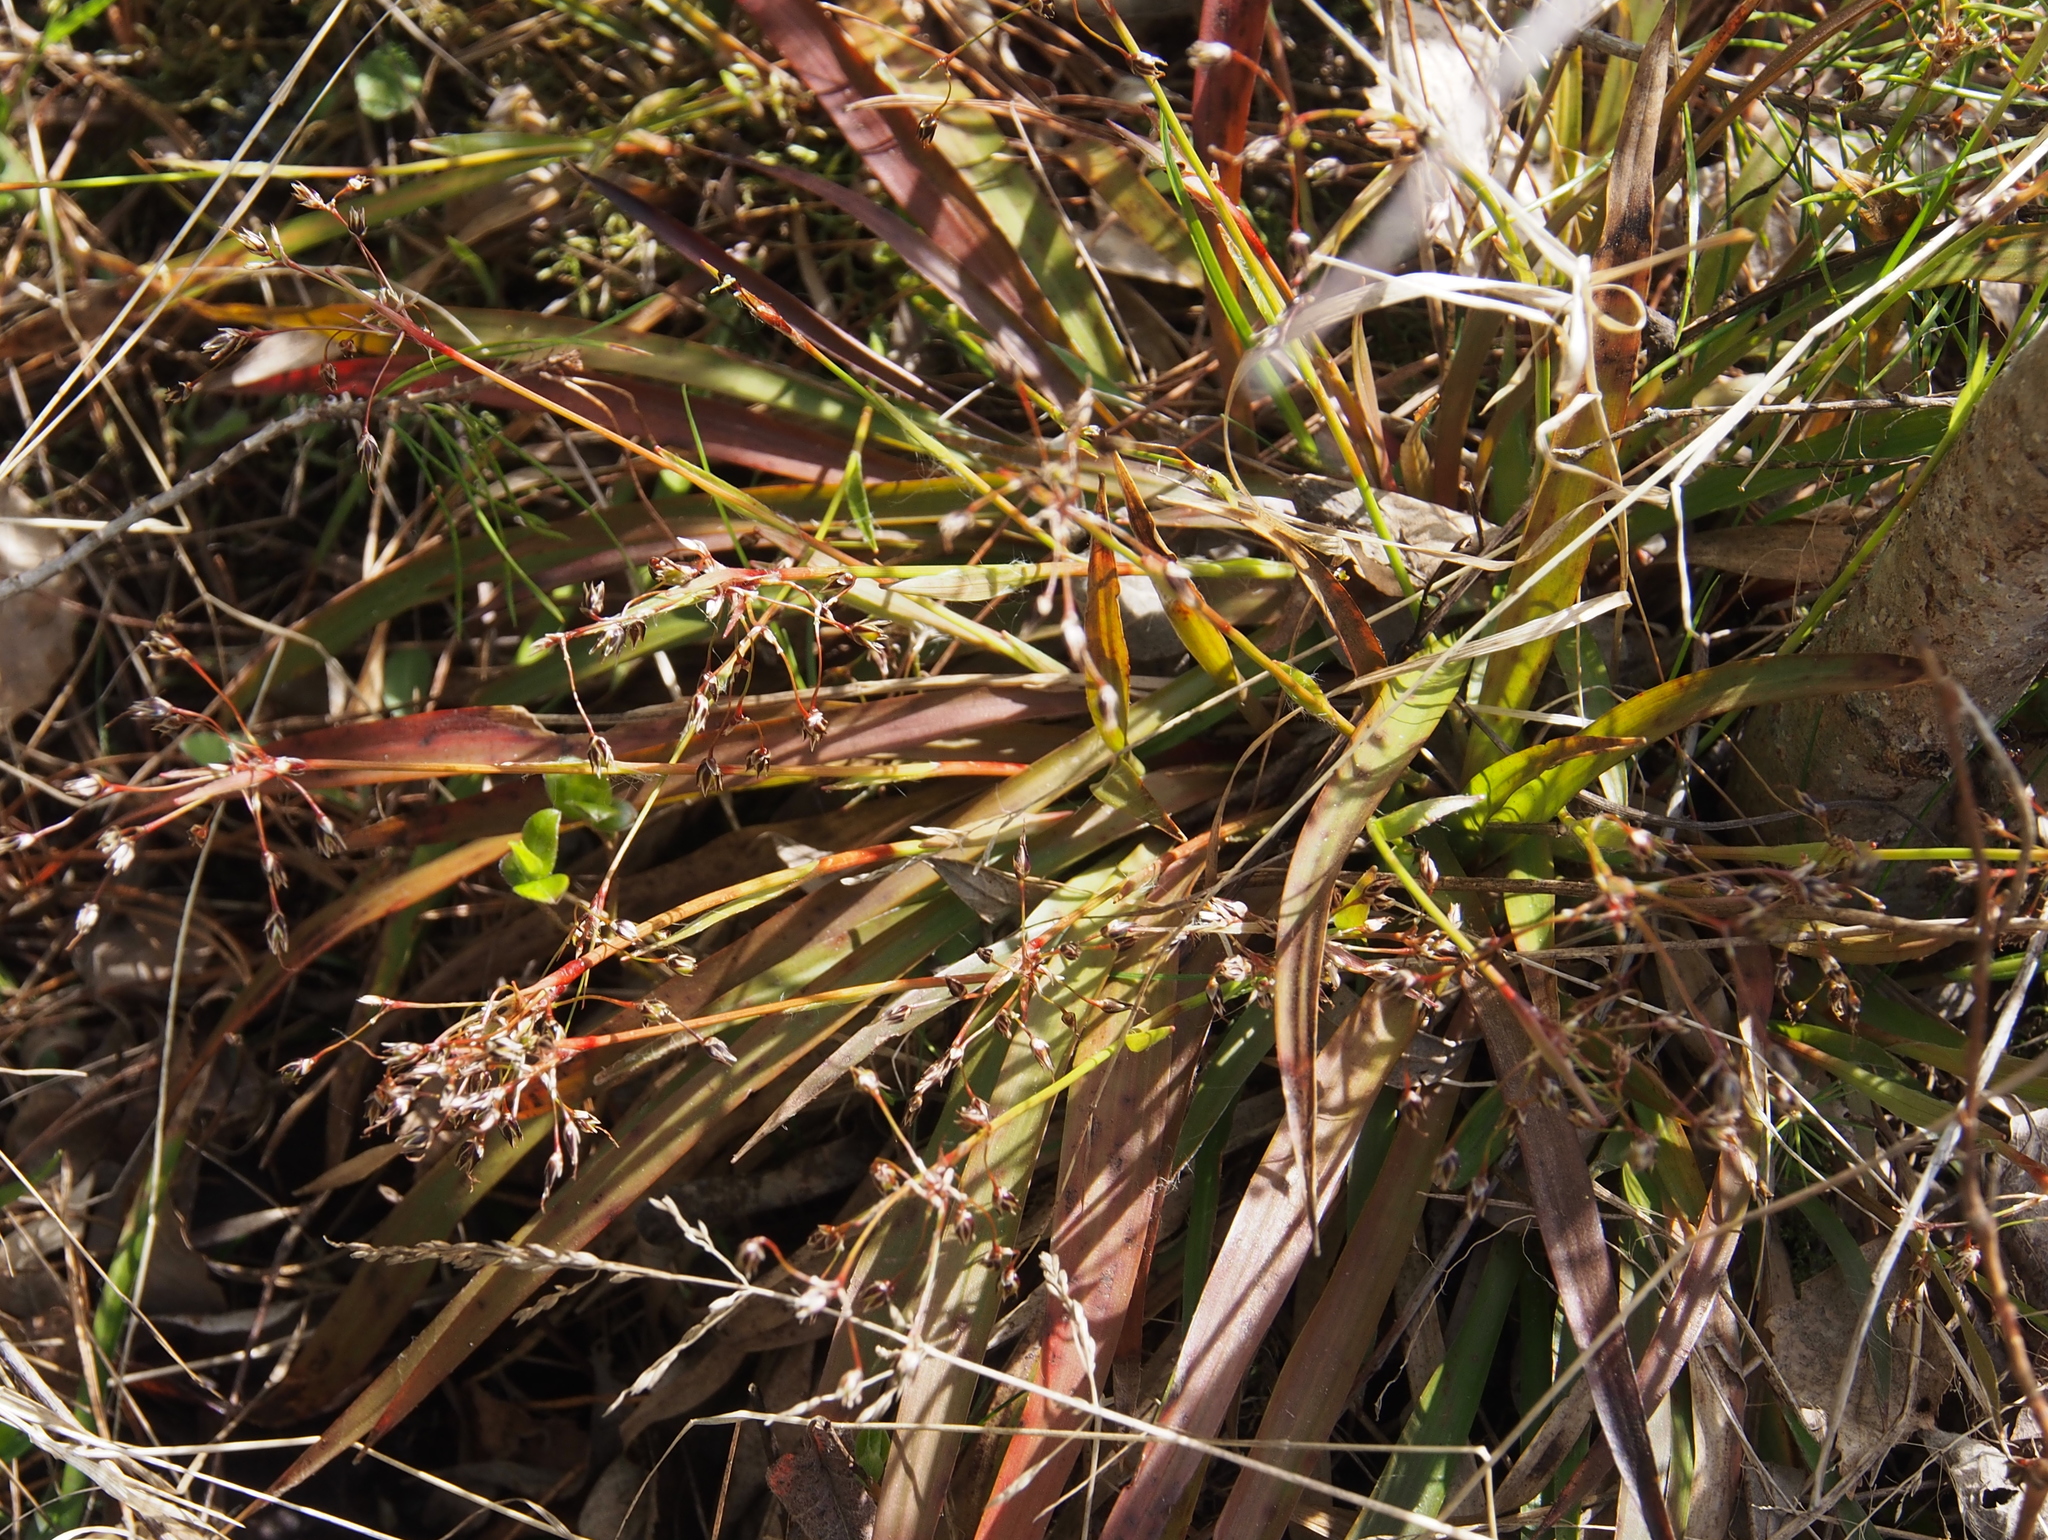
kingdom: Plantae
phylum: Tracheophyta
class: Liliopsida
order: Poales
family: Juncaceae
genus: Luzula
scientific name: Luzula pilosa
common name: Hairy wood-rush
